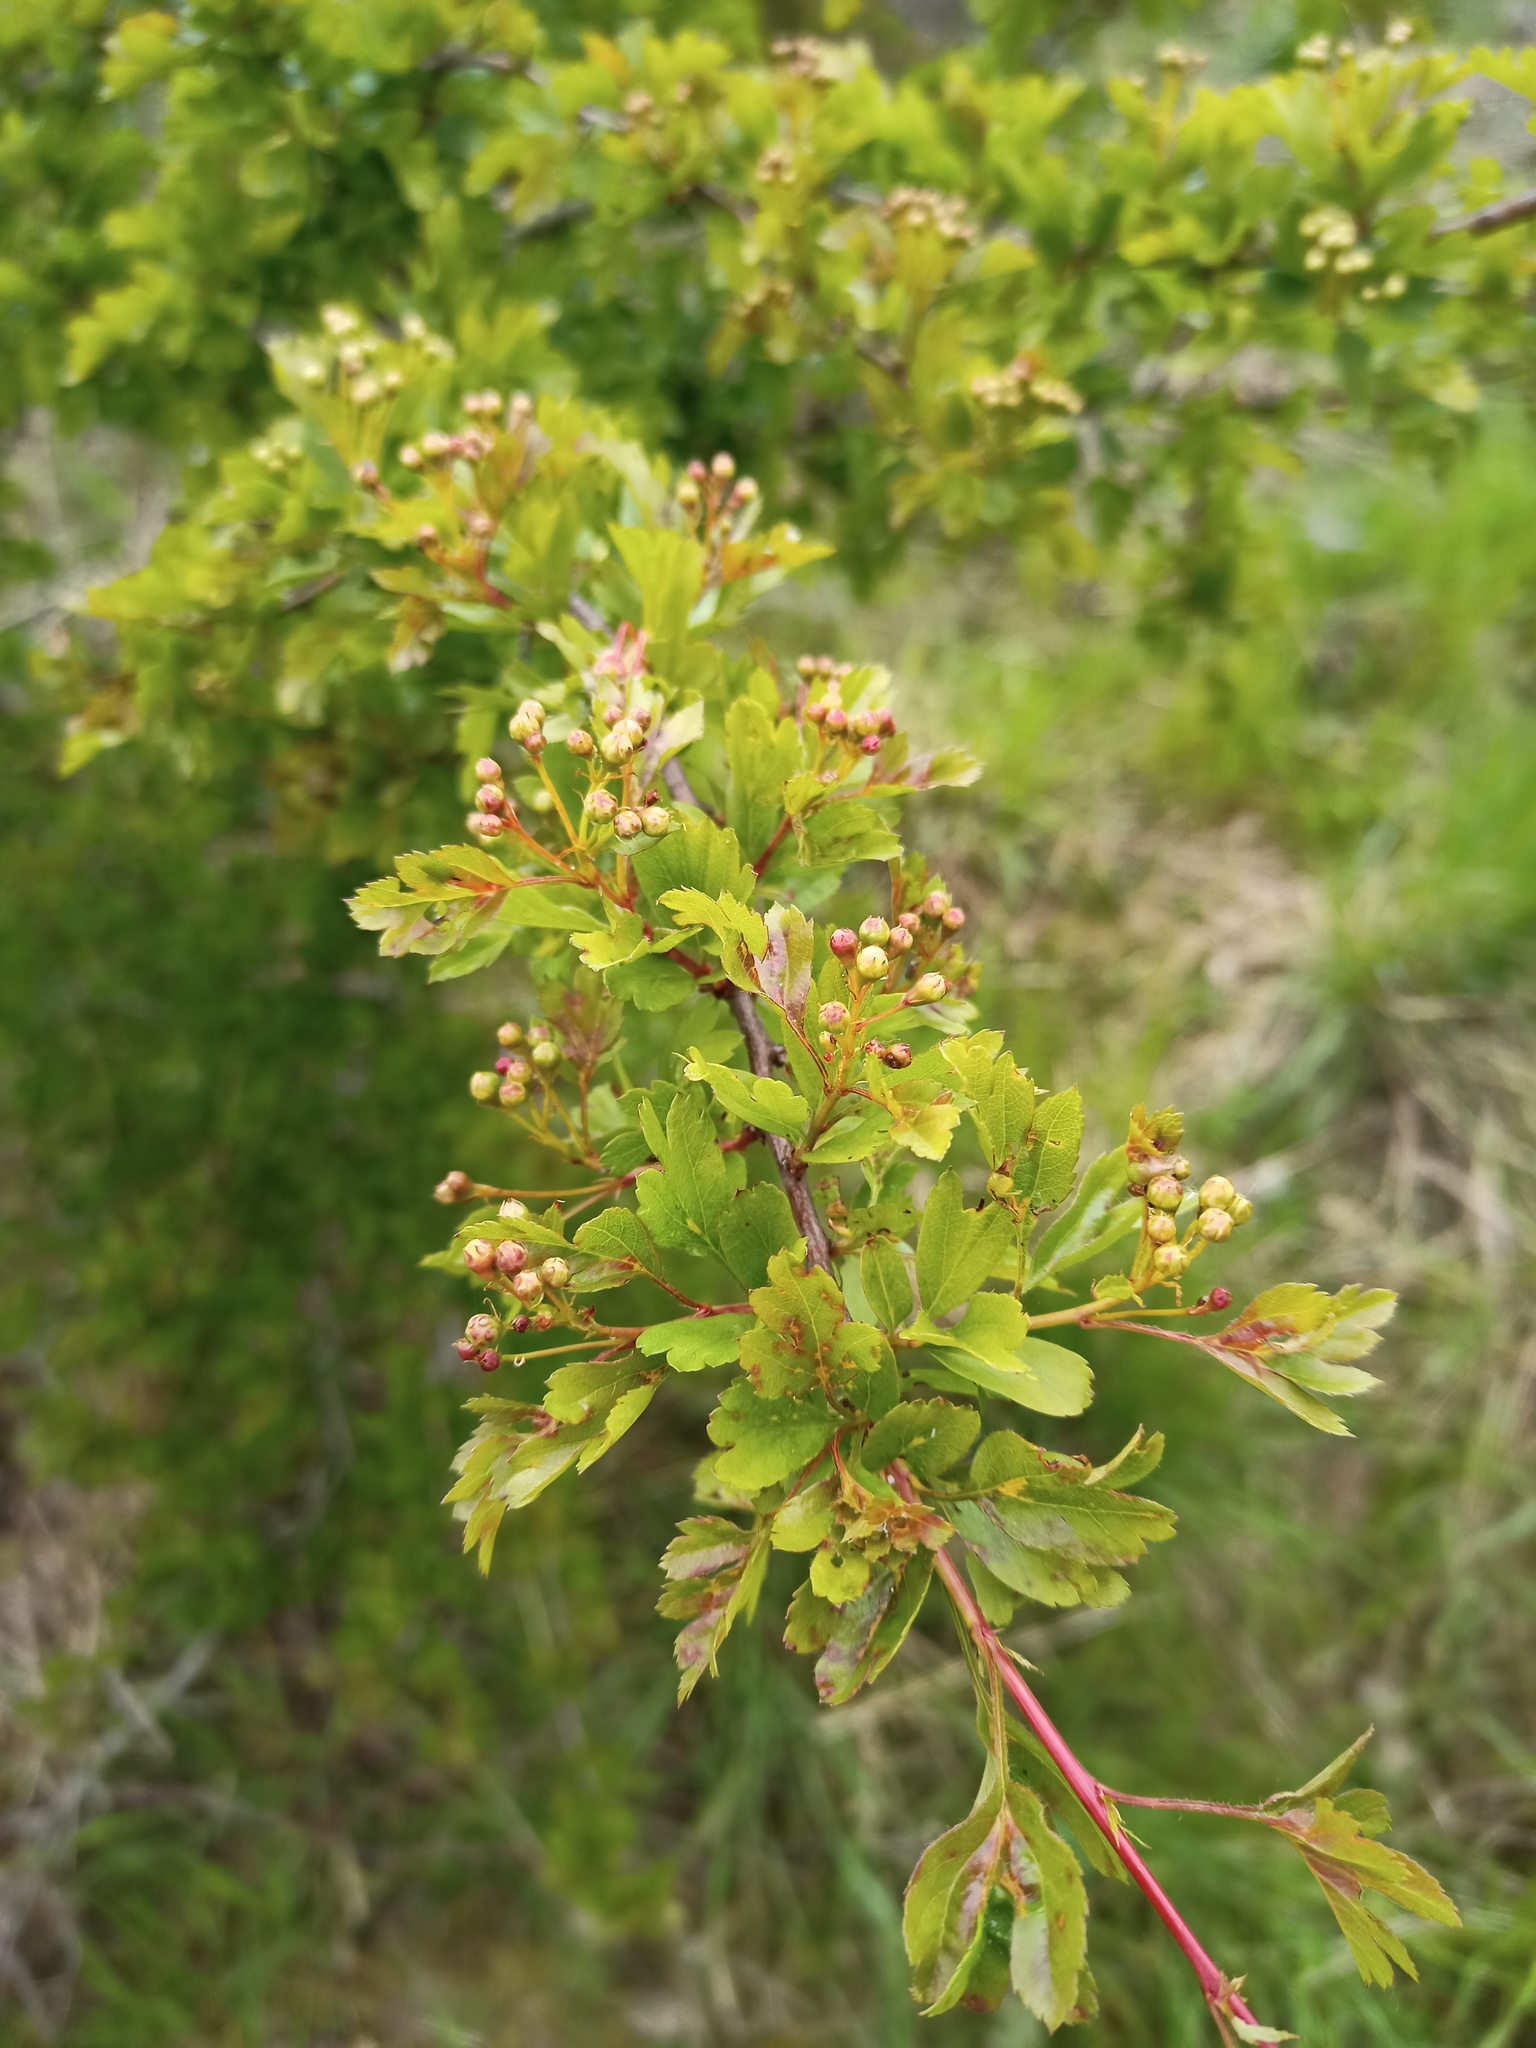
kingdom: Plantae
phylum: Tracheophyta
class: Magnoliopsida
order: Rosales
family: Rosaceae
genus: Crataegus
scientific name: Crataegus monogyna
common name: Hawthorn
